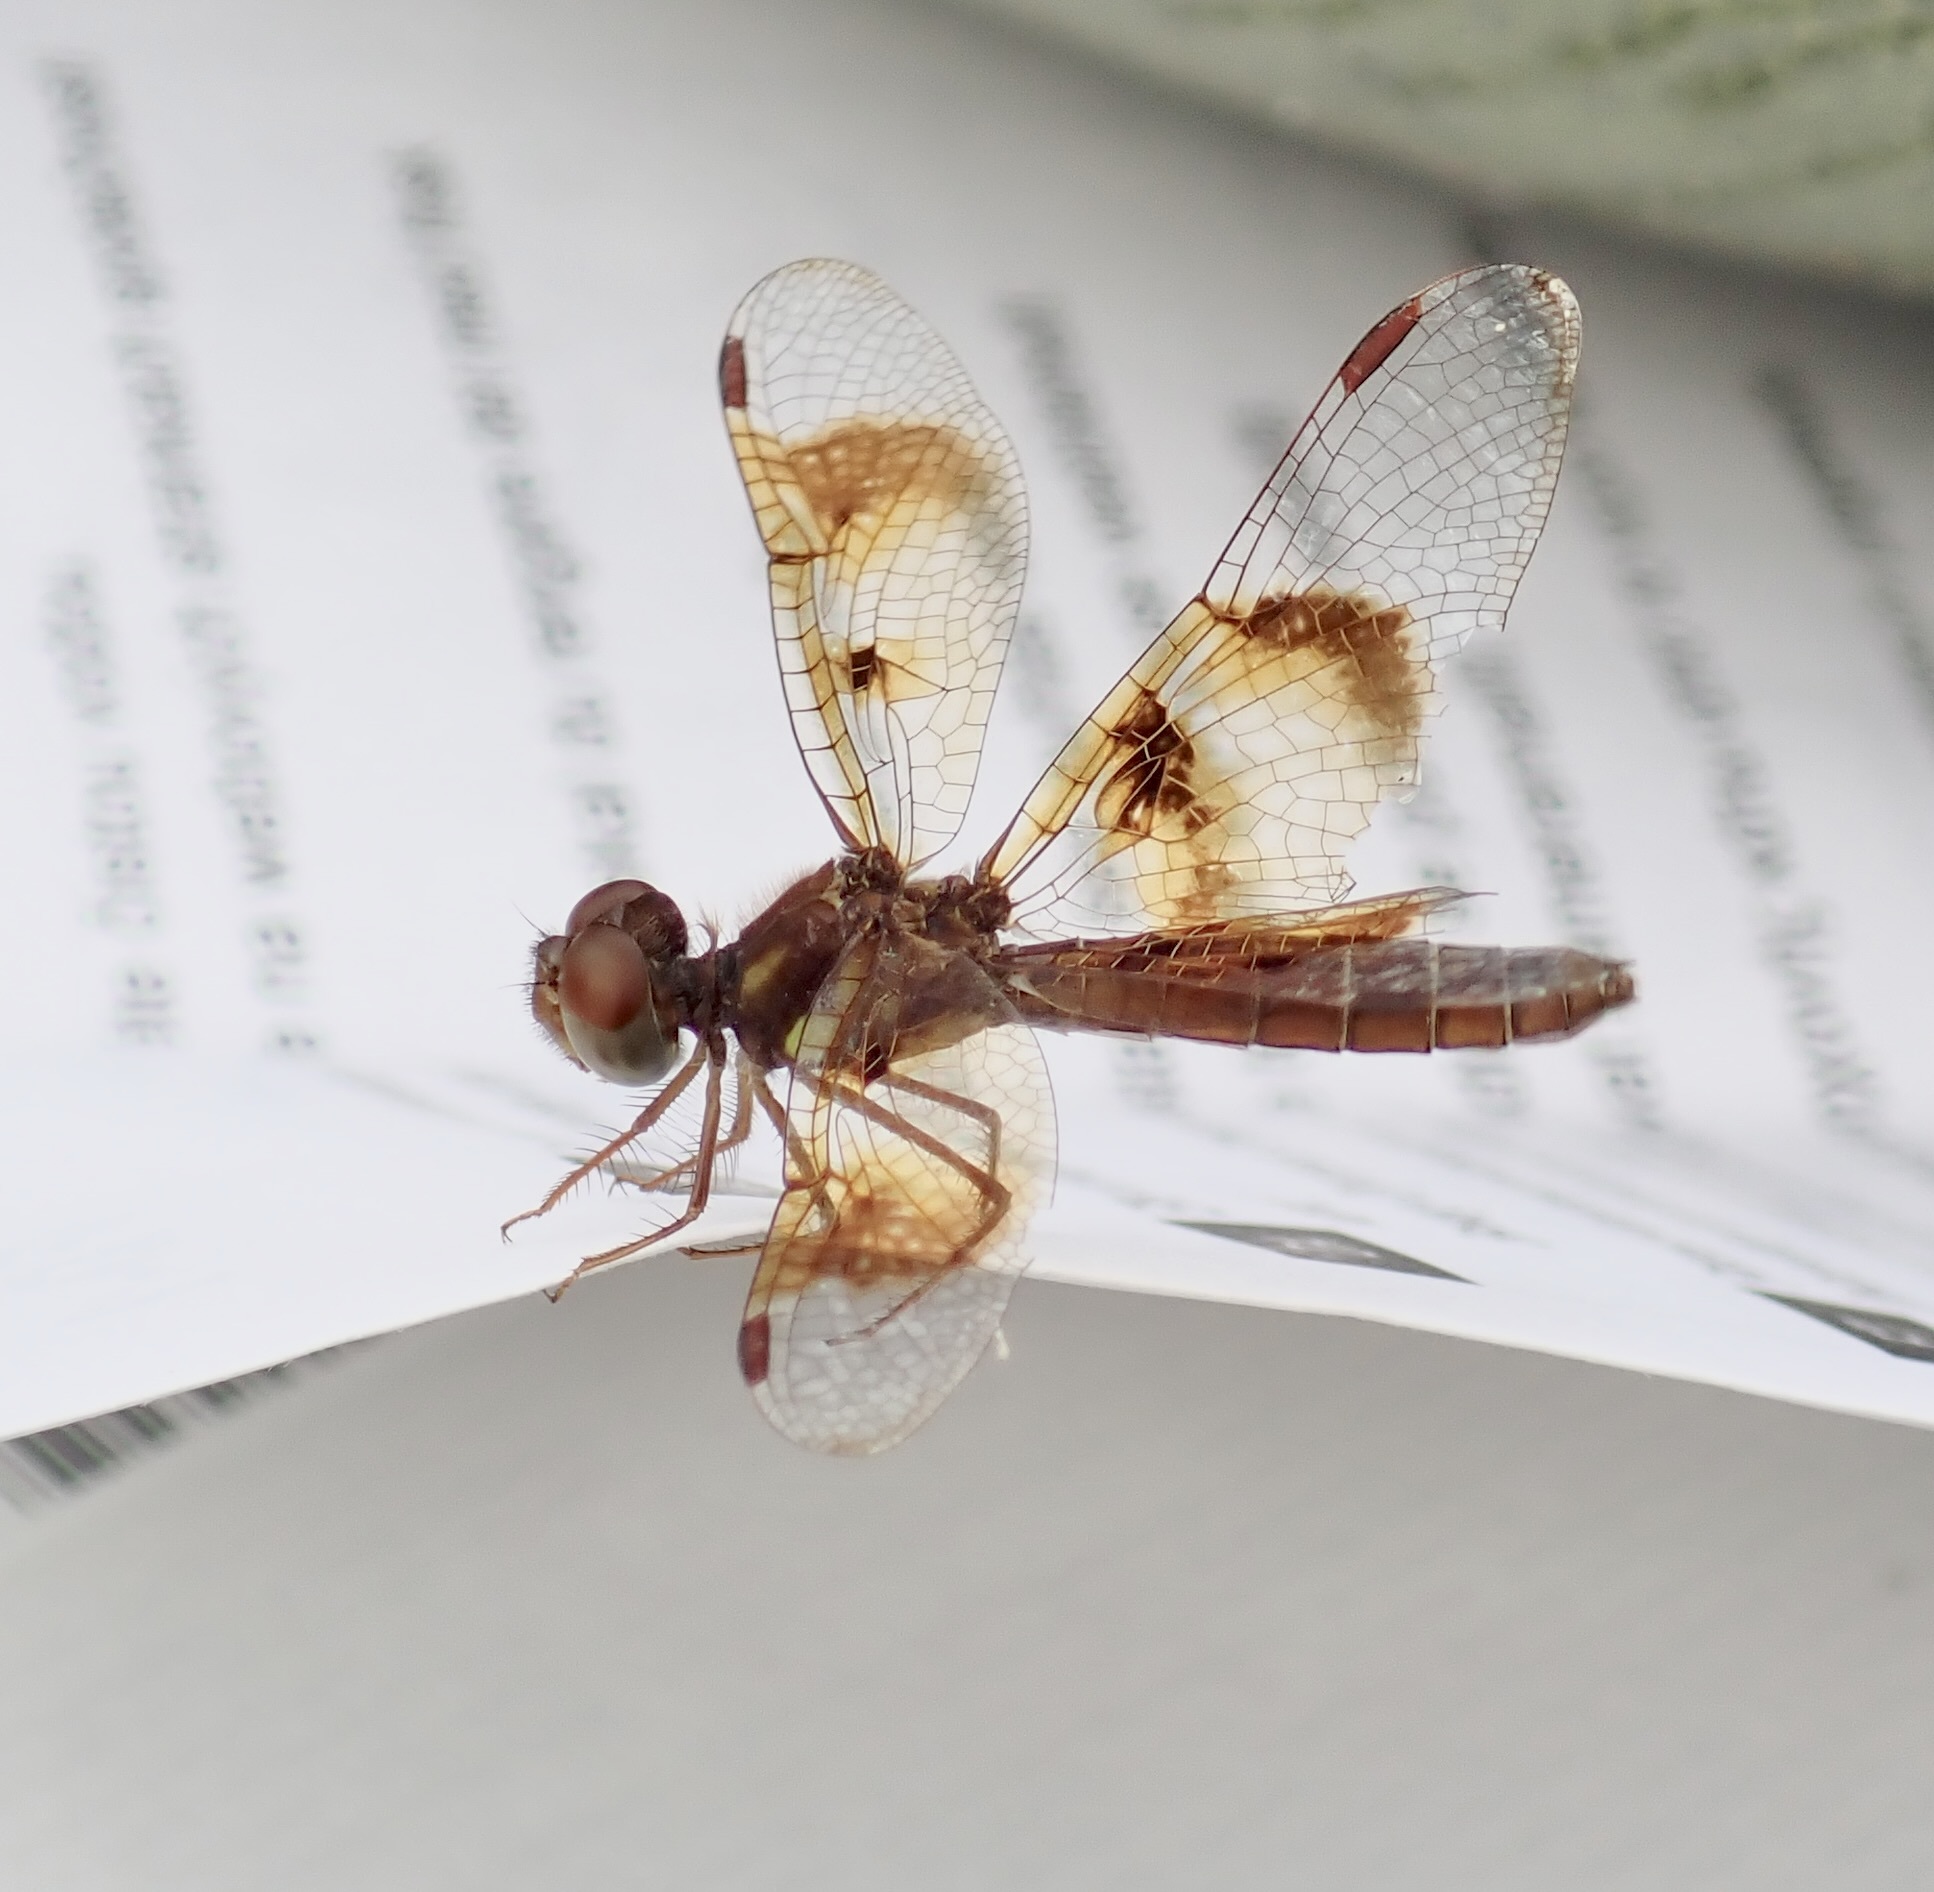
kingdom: Animalia
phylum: Arthropoda
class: Insecta
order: Odonata
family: Libellulidae
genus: Perithemis
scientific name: Perithemis tenera
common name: Eastern amberwing
